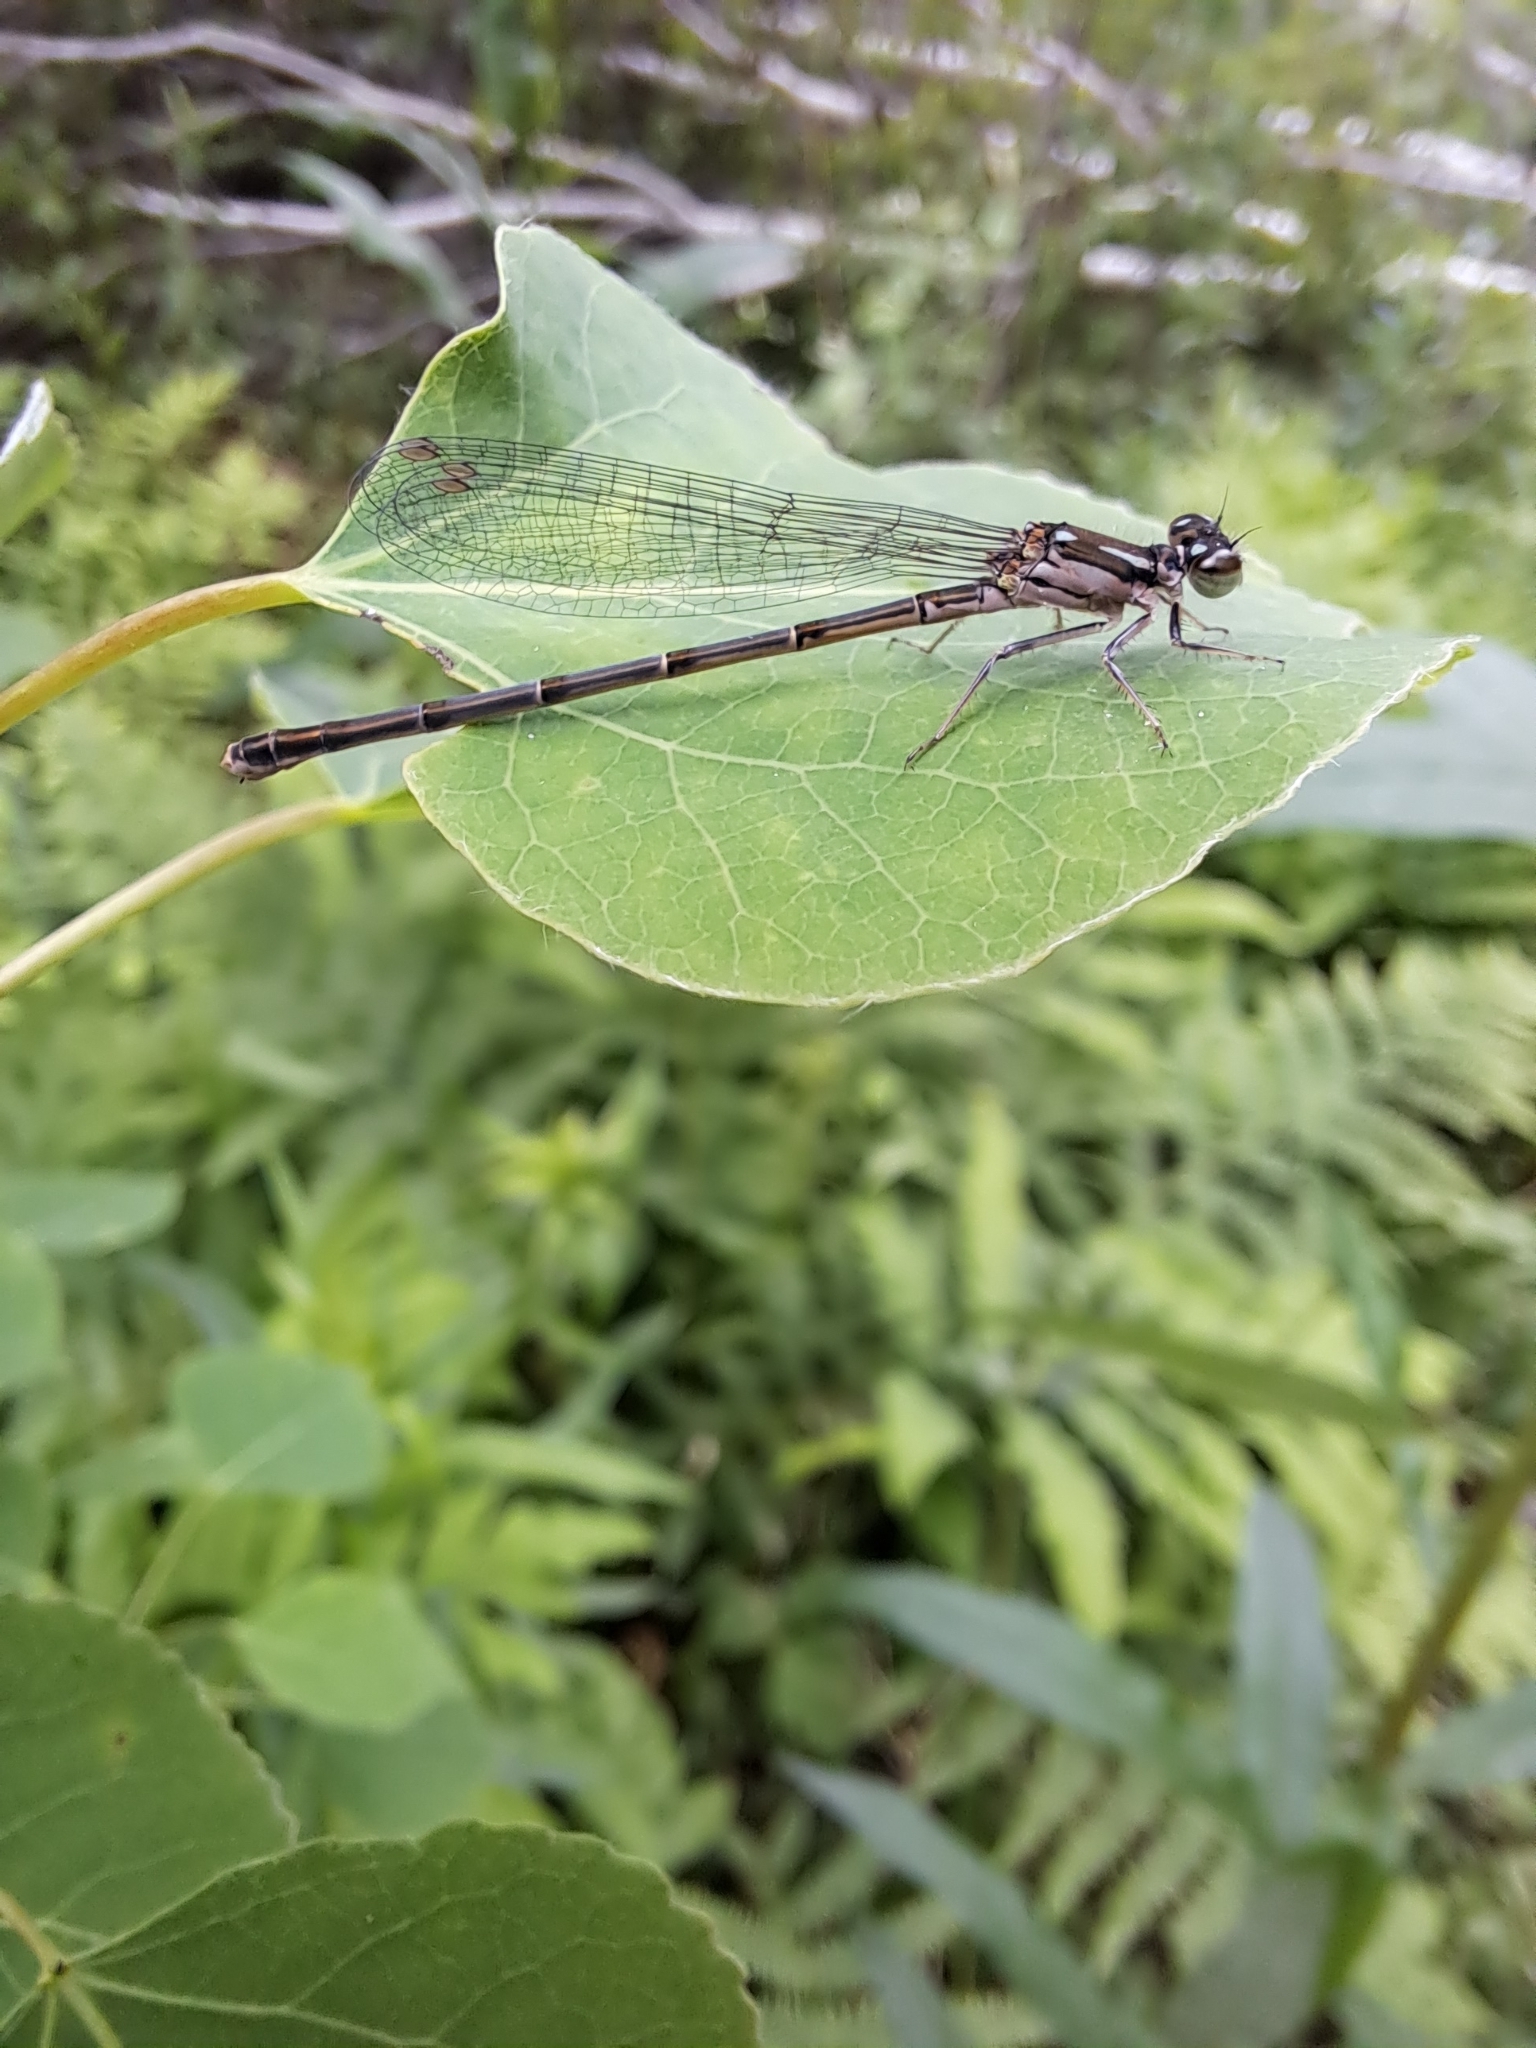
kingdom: Animalia
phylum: Arthropoda
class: Insecta
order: Odonata
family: Coenagrionidae
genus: Ischnura
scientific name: Ischnura posita
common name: Fragile forktail
